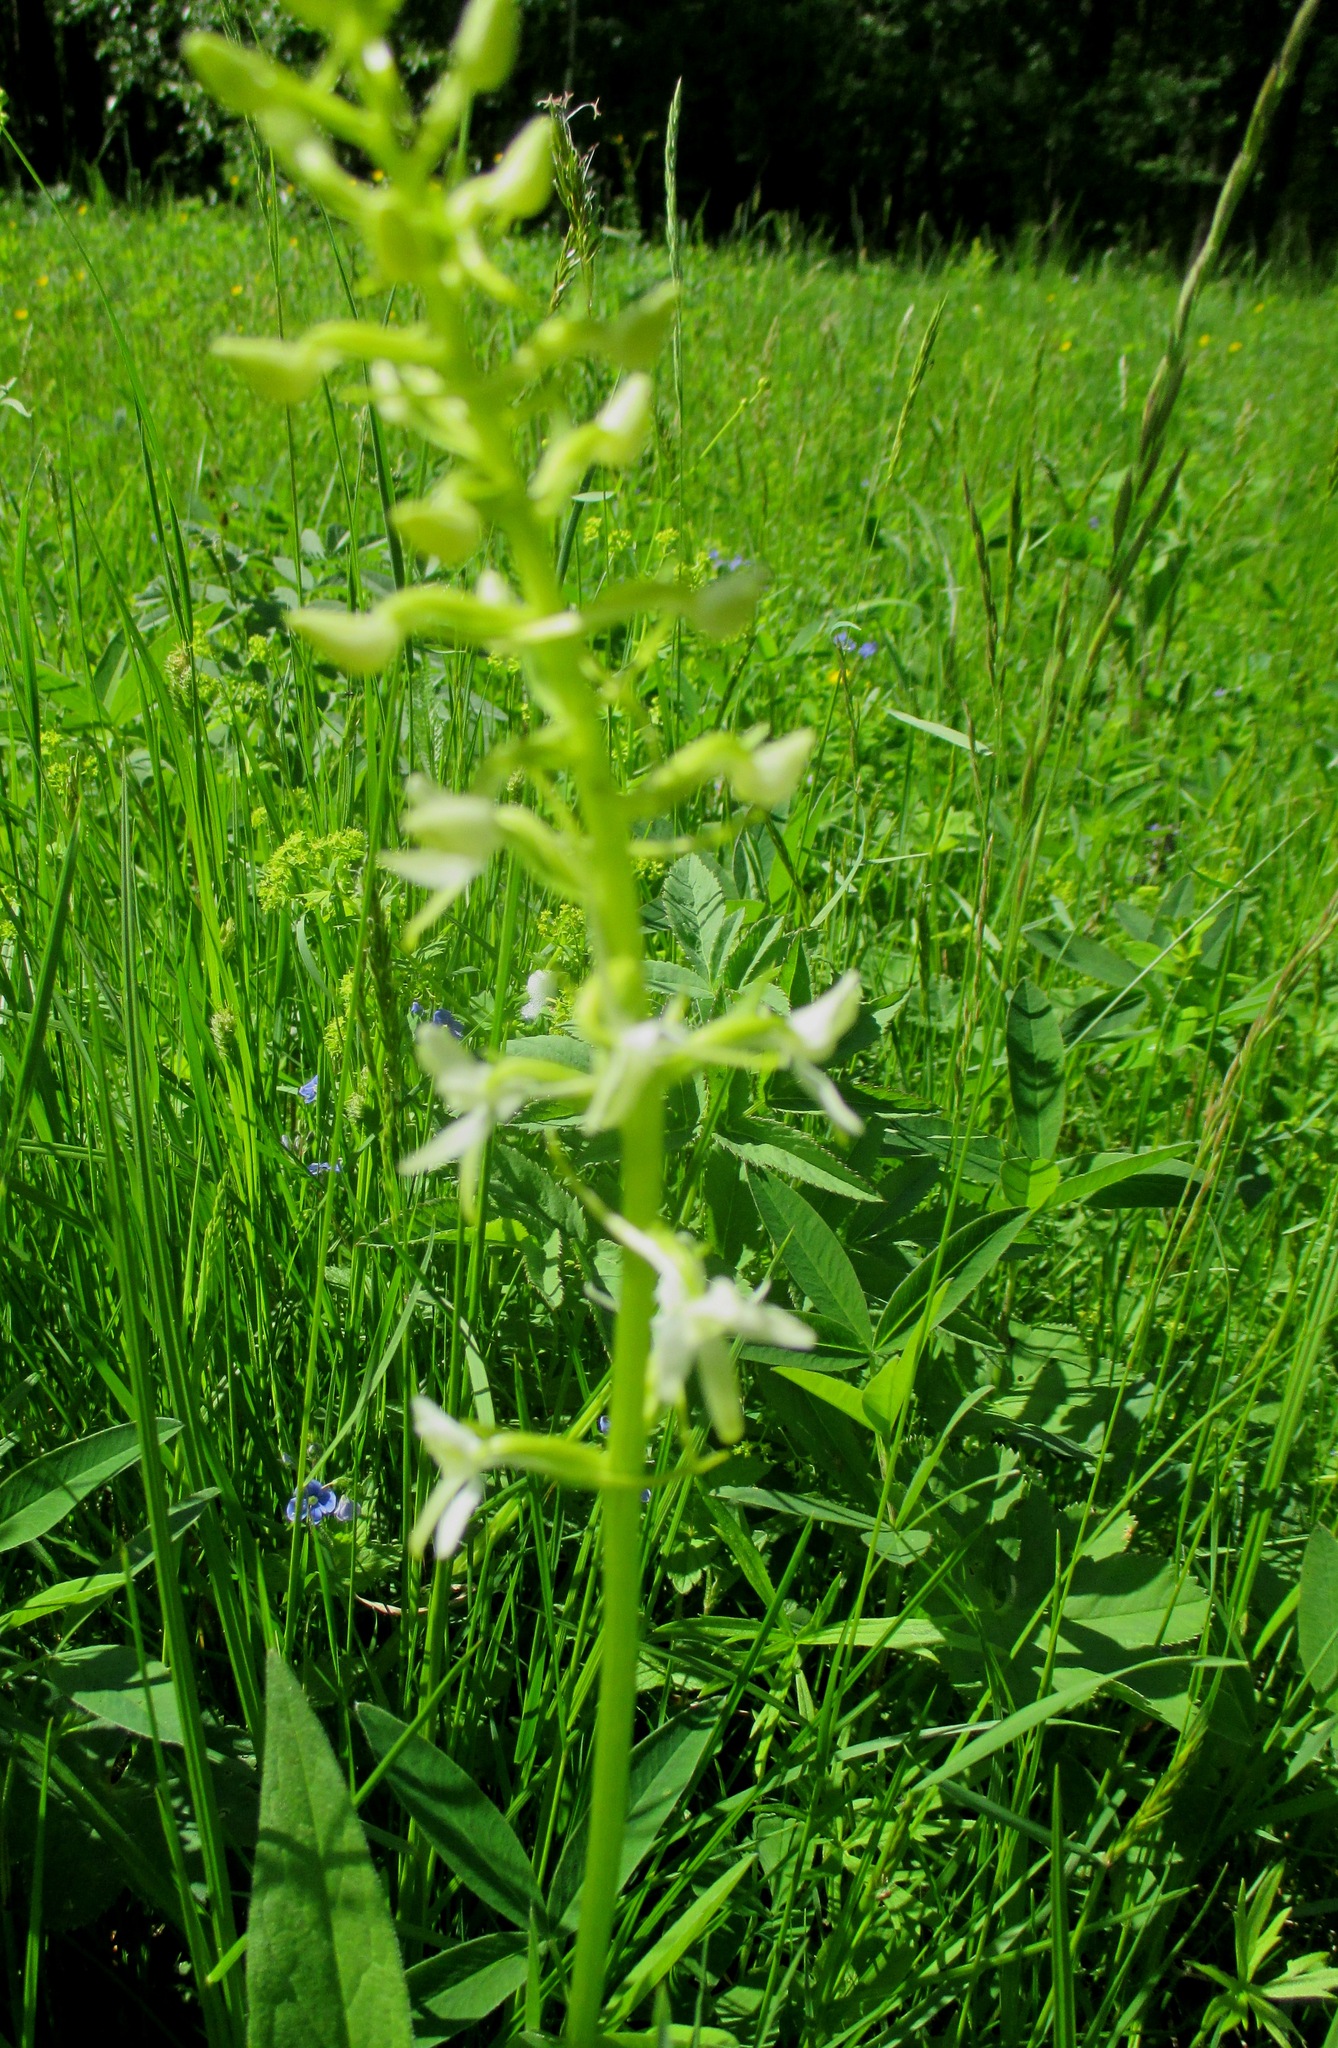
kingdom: Plantae
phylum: Tracheophyta
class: Liliopsida
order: Asparagales
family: Orchidaceae
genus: Platanthera
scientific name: Platanthera bifolia
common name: Lesser butterfly-orchid
